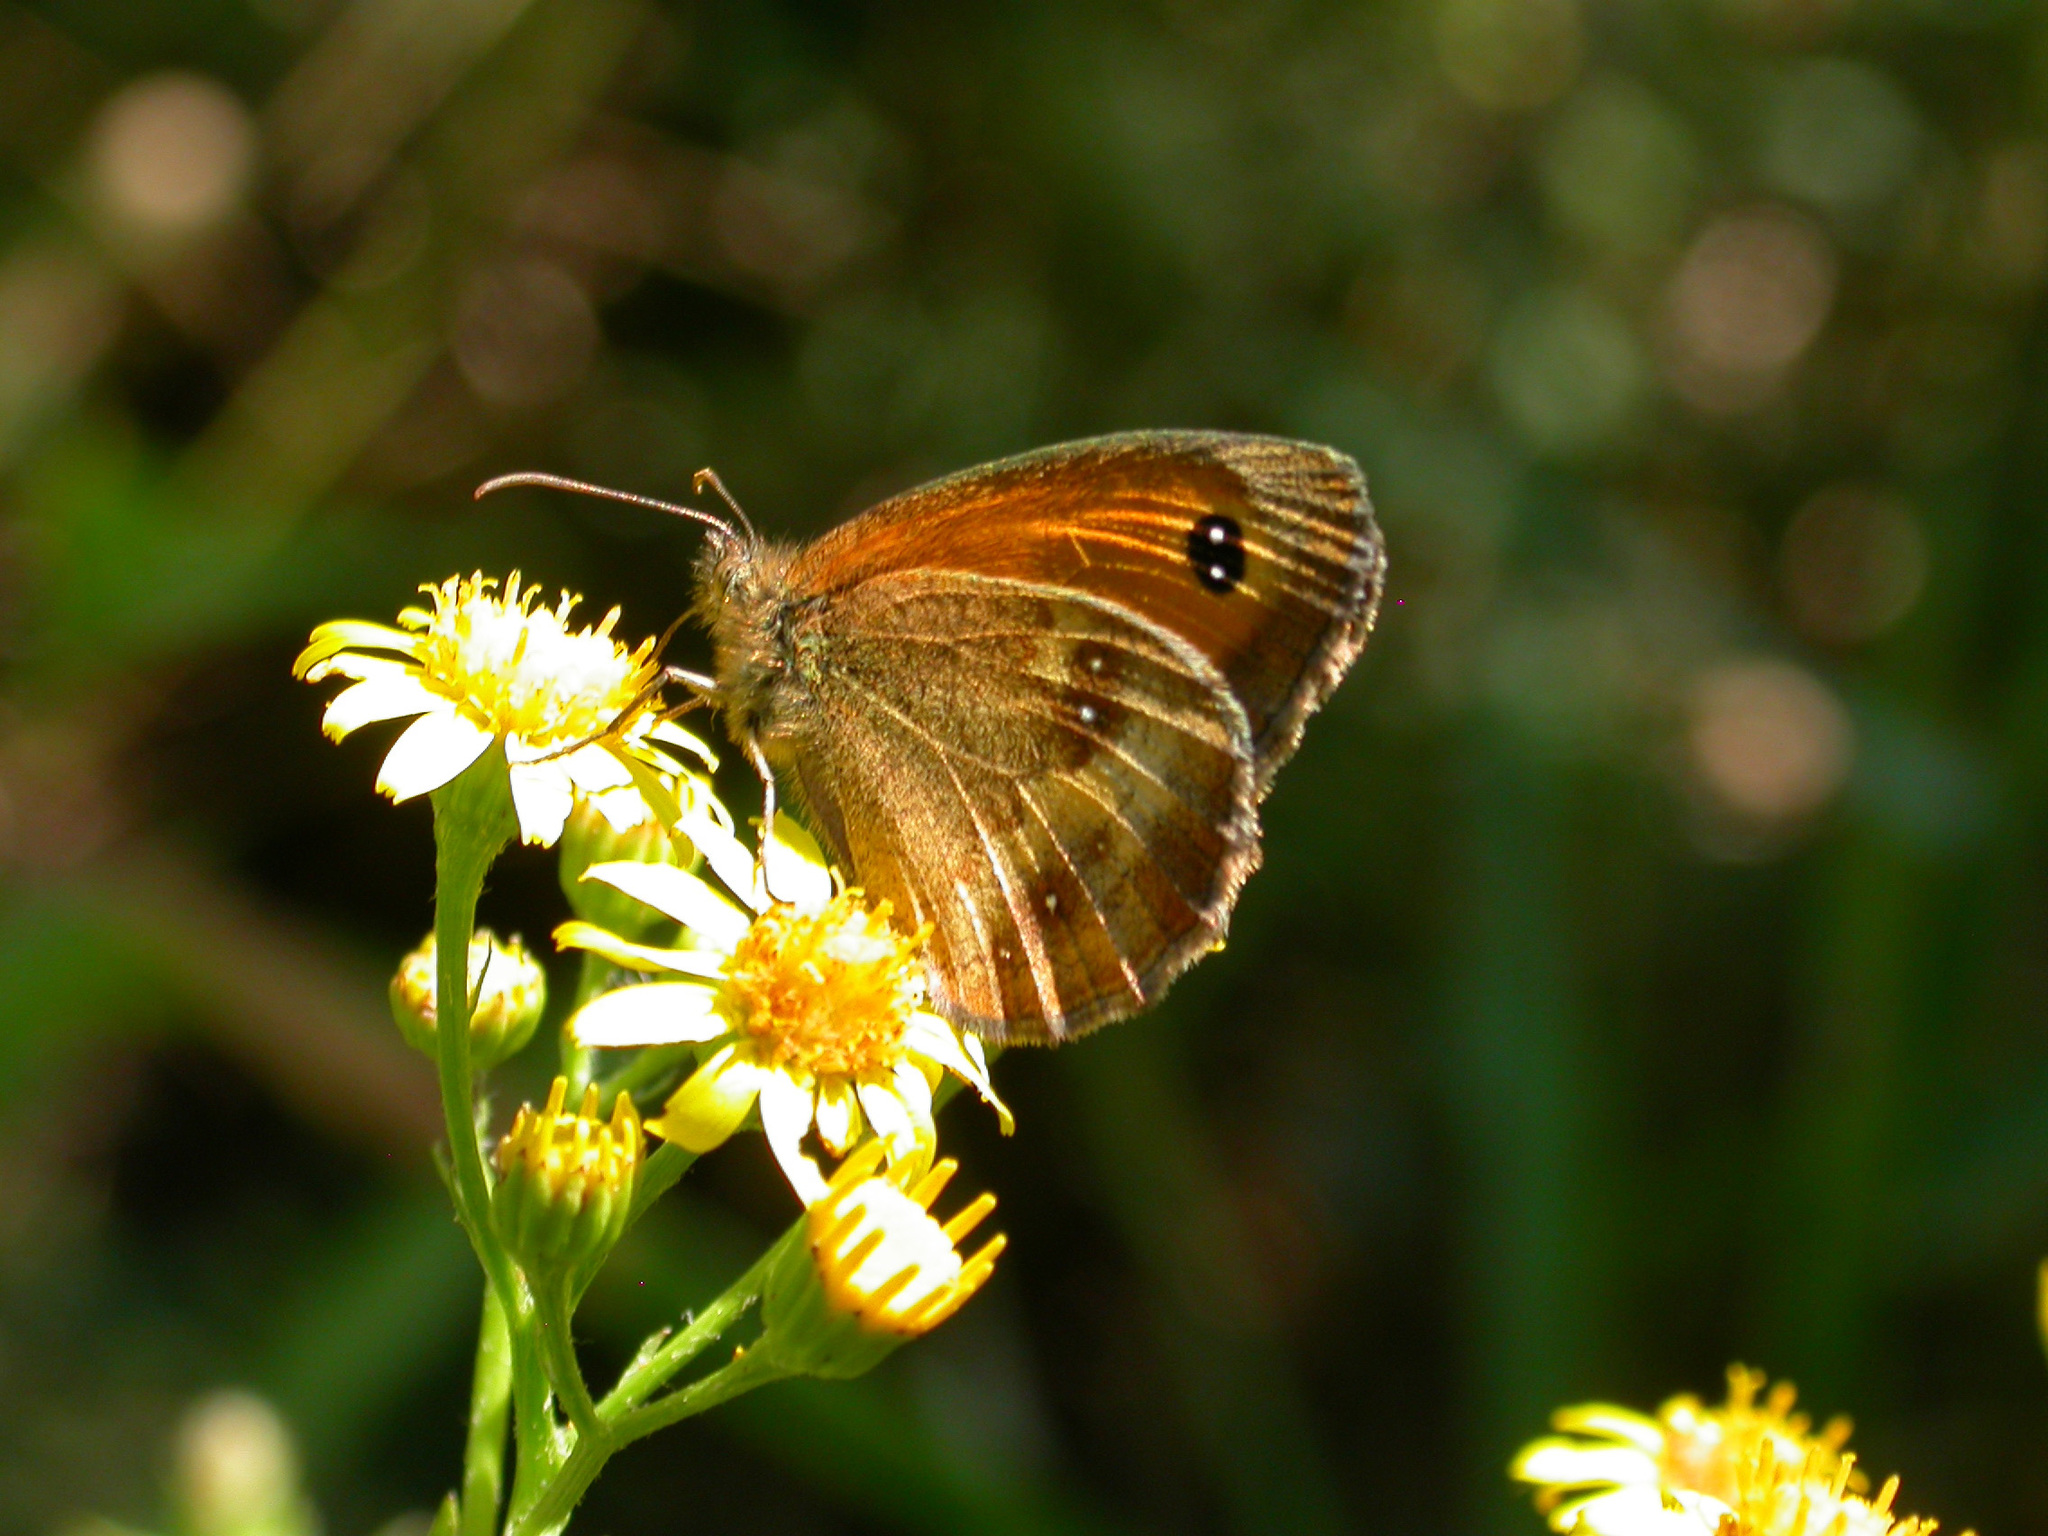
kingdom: Animalia
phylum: Arthropoda
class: Insecta
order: Lepidoptera
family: Nymphalidae
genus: Pyronia
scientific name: Pyronia tithonus
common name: Gatekeeper
